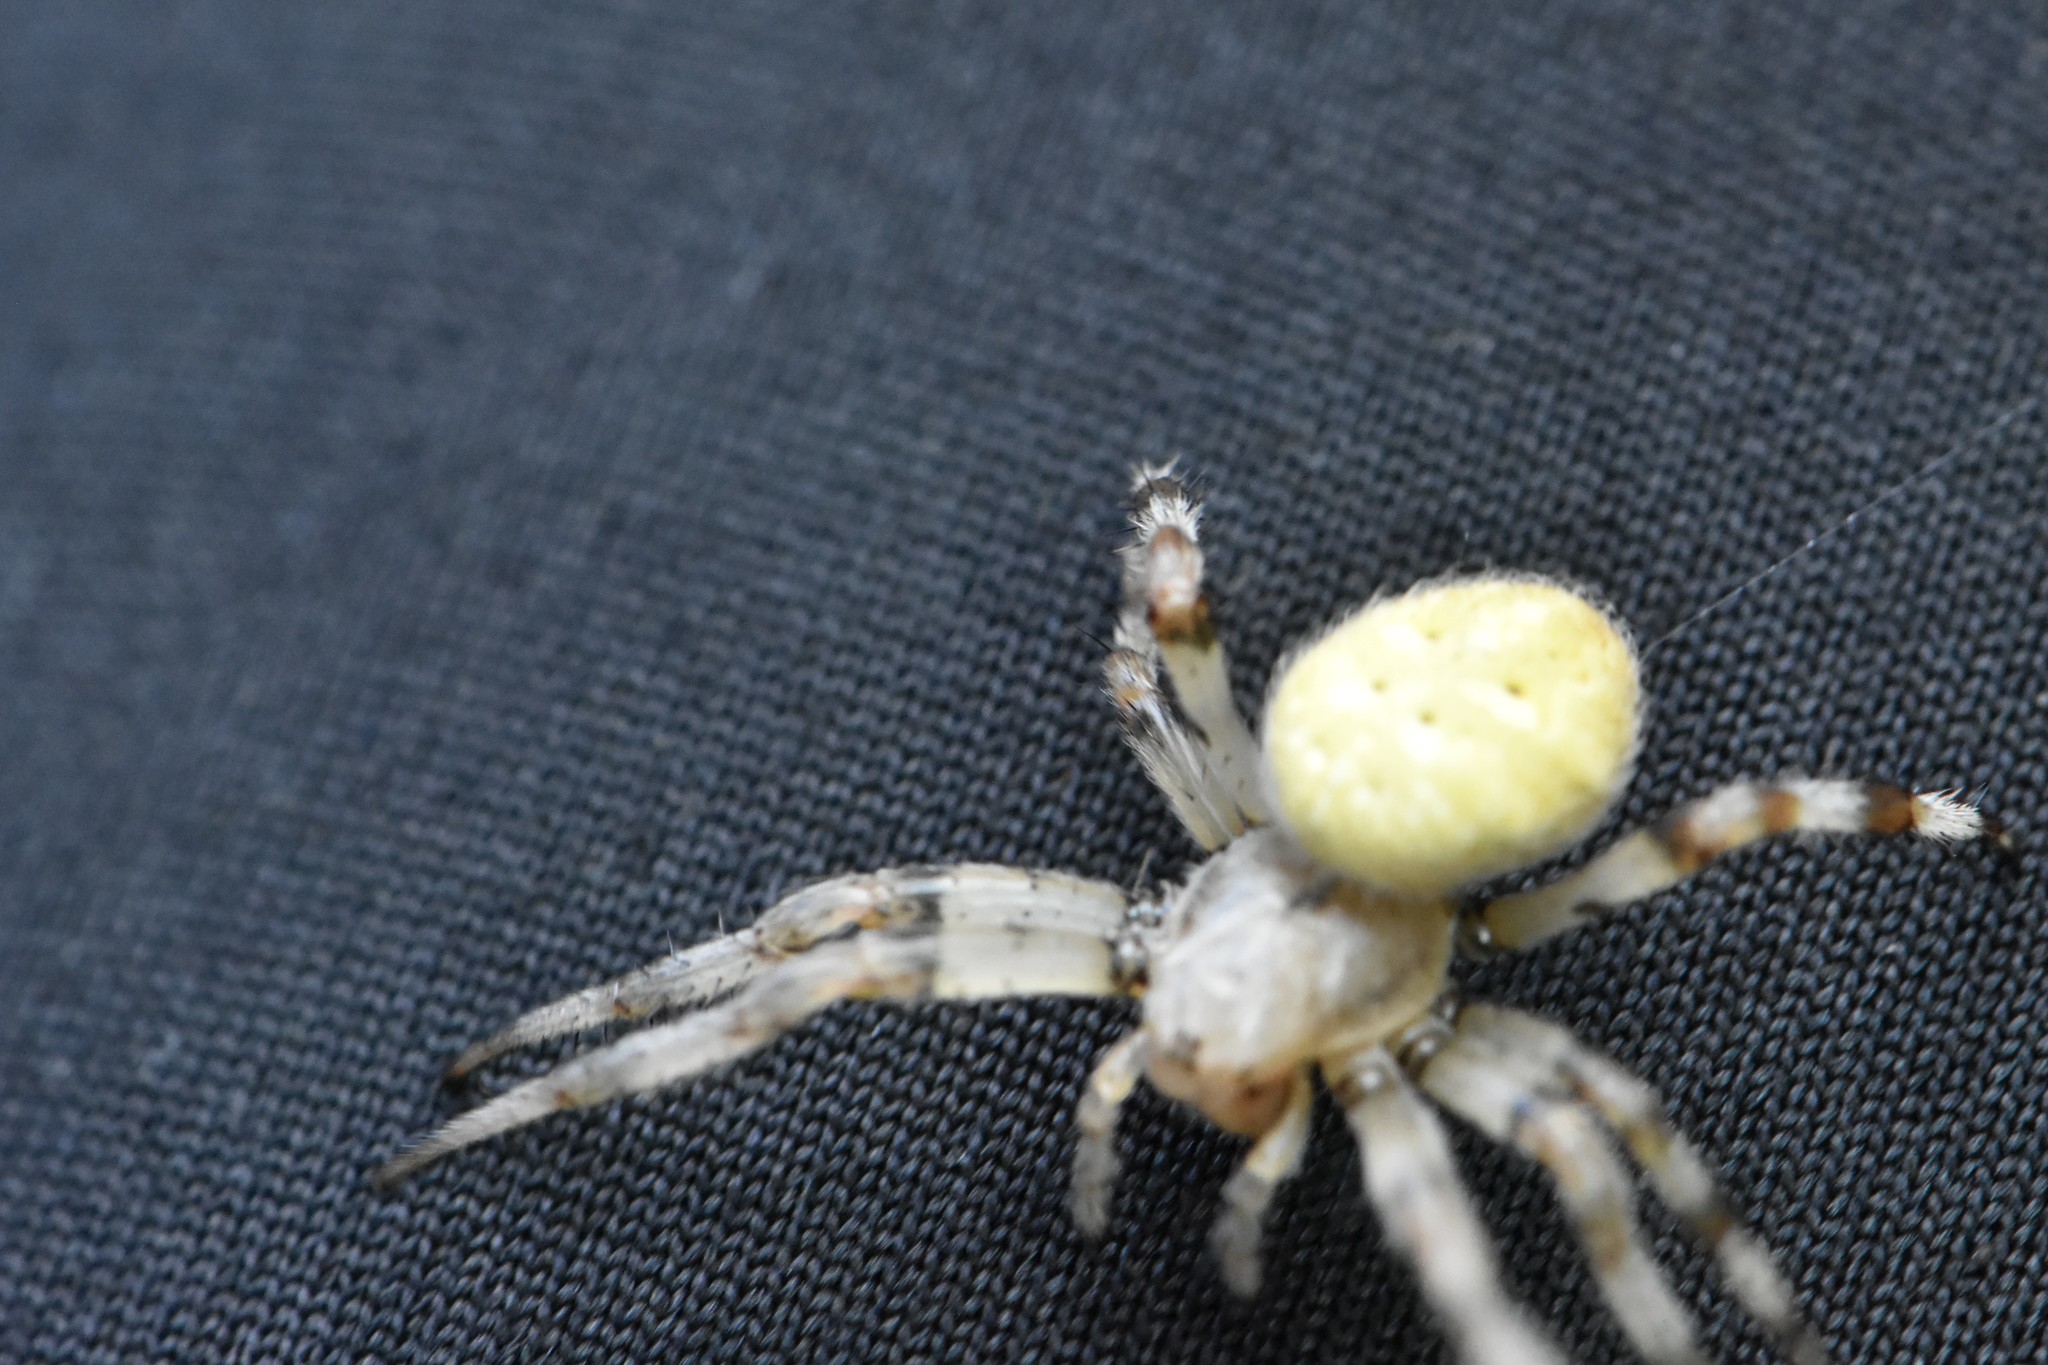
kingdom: Animalia
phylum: Arthropoda
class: Arachnida
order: Araneae
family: Araneidae
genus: Araneus
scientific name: Araneus quadratus
